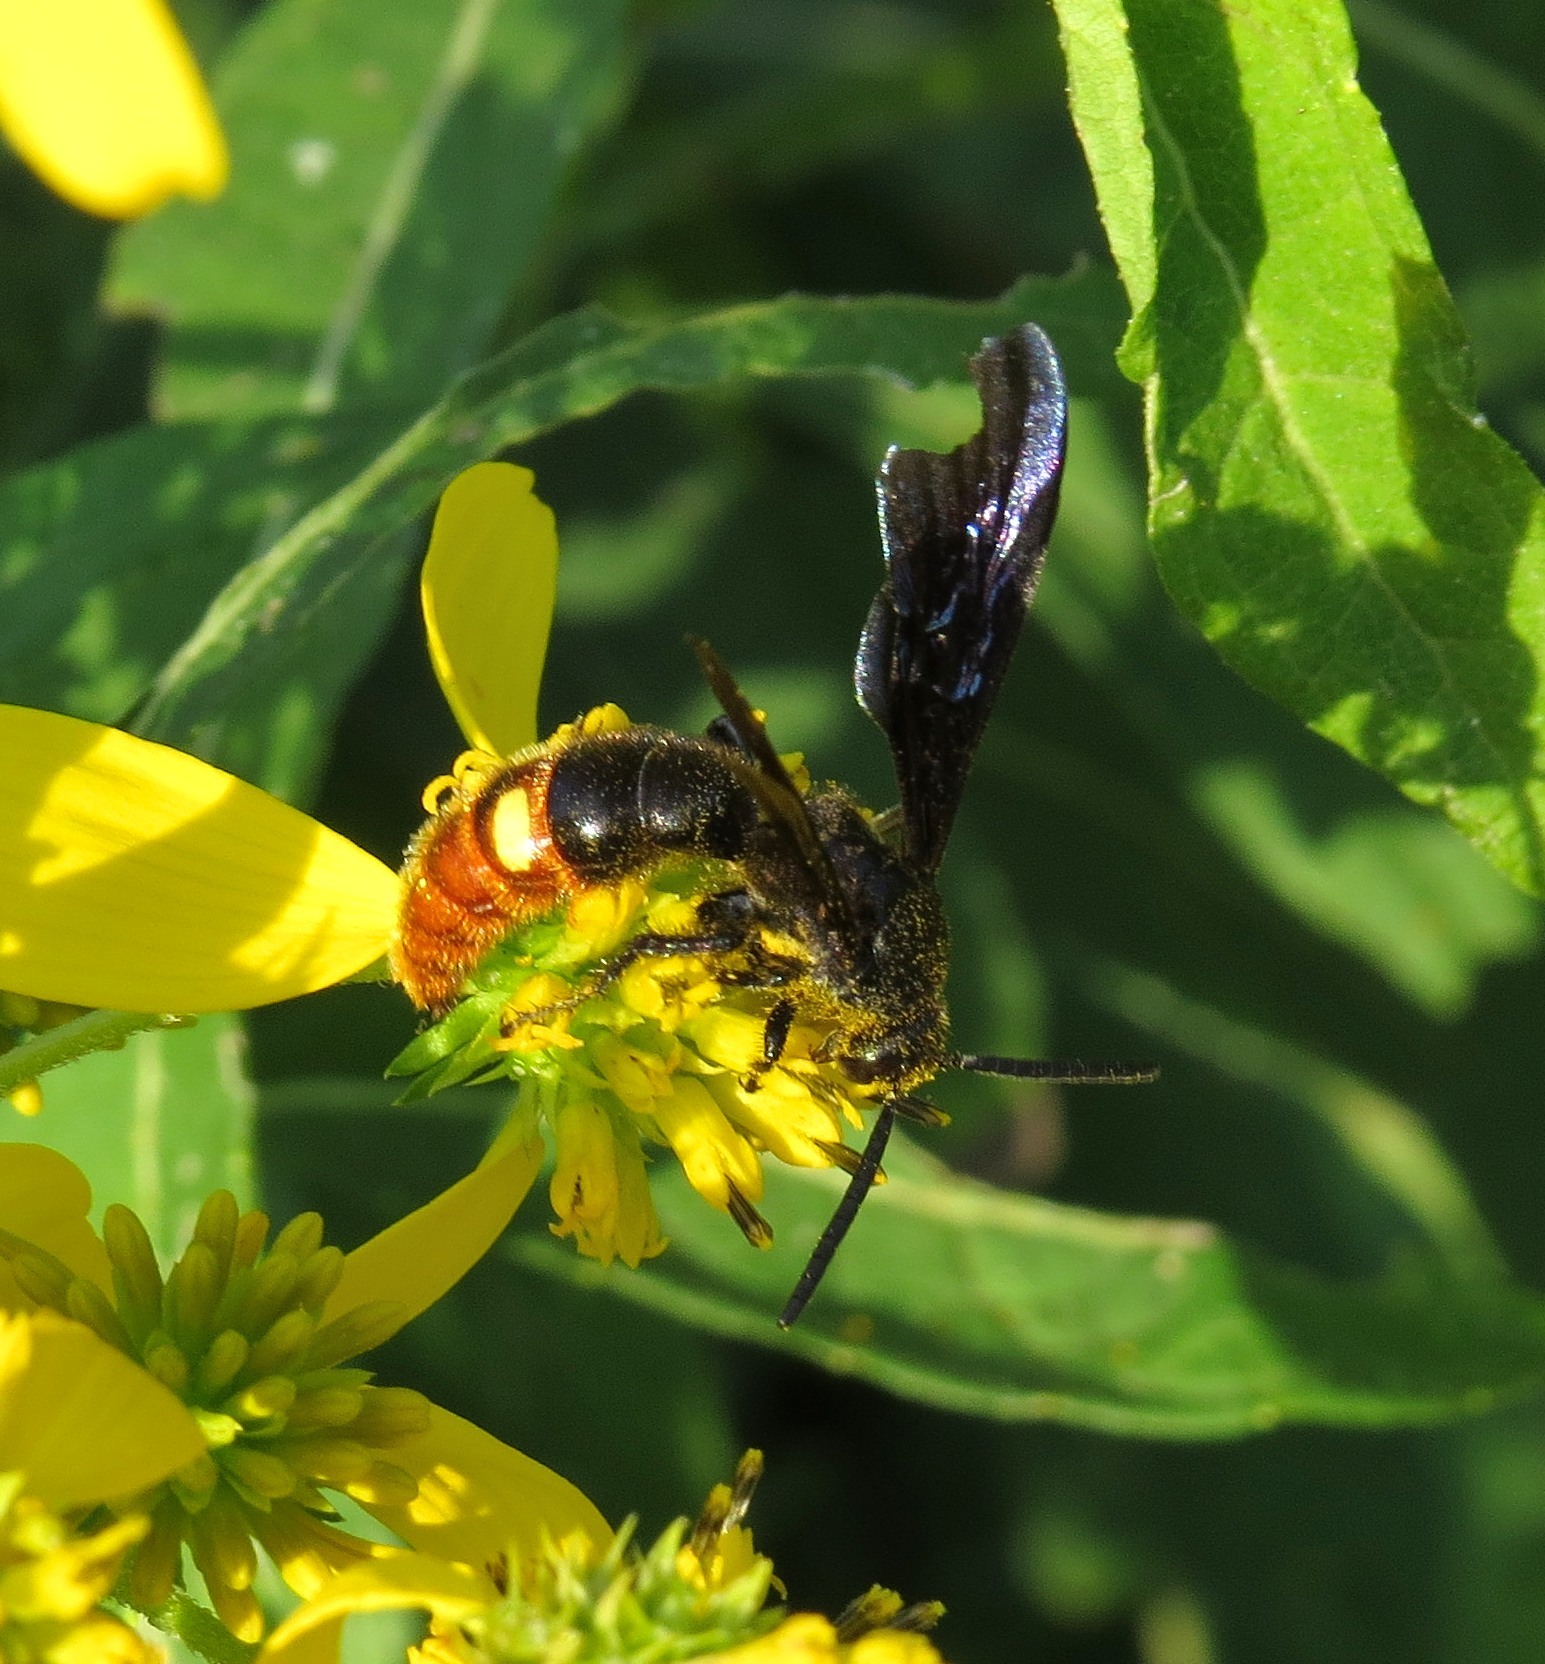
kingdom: Animalia
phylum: Arthropoda
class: Insecta
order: Hymenoptera
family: Scoliidae
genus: Scolia
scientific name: Scolia dubia
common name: Blue-winged scoliid wasp
